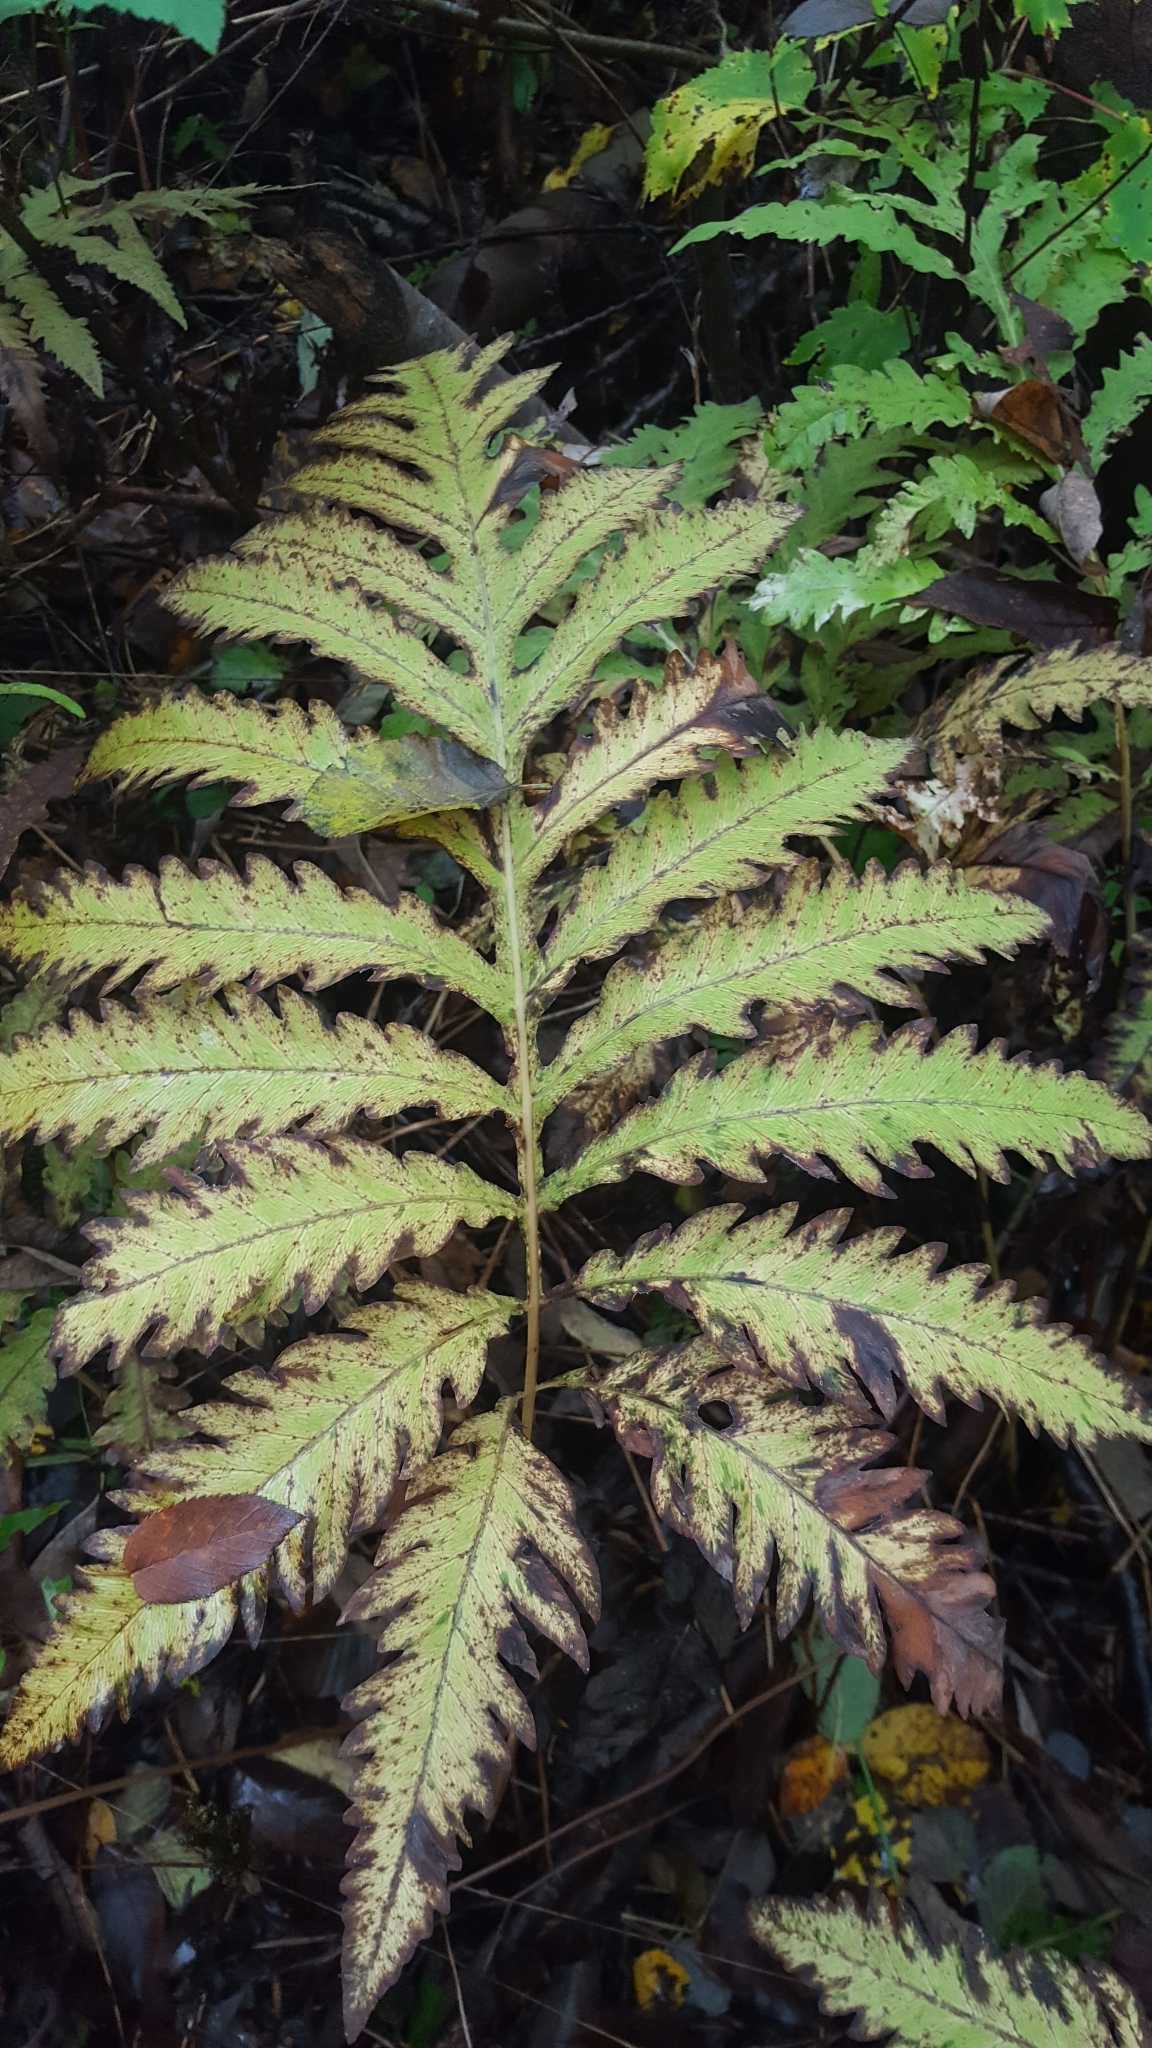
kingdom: Plantae
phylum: Tracheophyta
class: Polypodiopsida
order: Polypodiales
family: Onocleaceae
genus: Onoclea
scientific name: Onoclea sensibilis
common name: Sensitive fern
